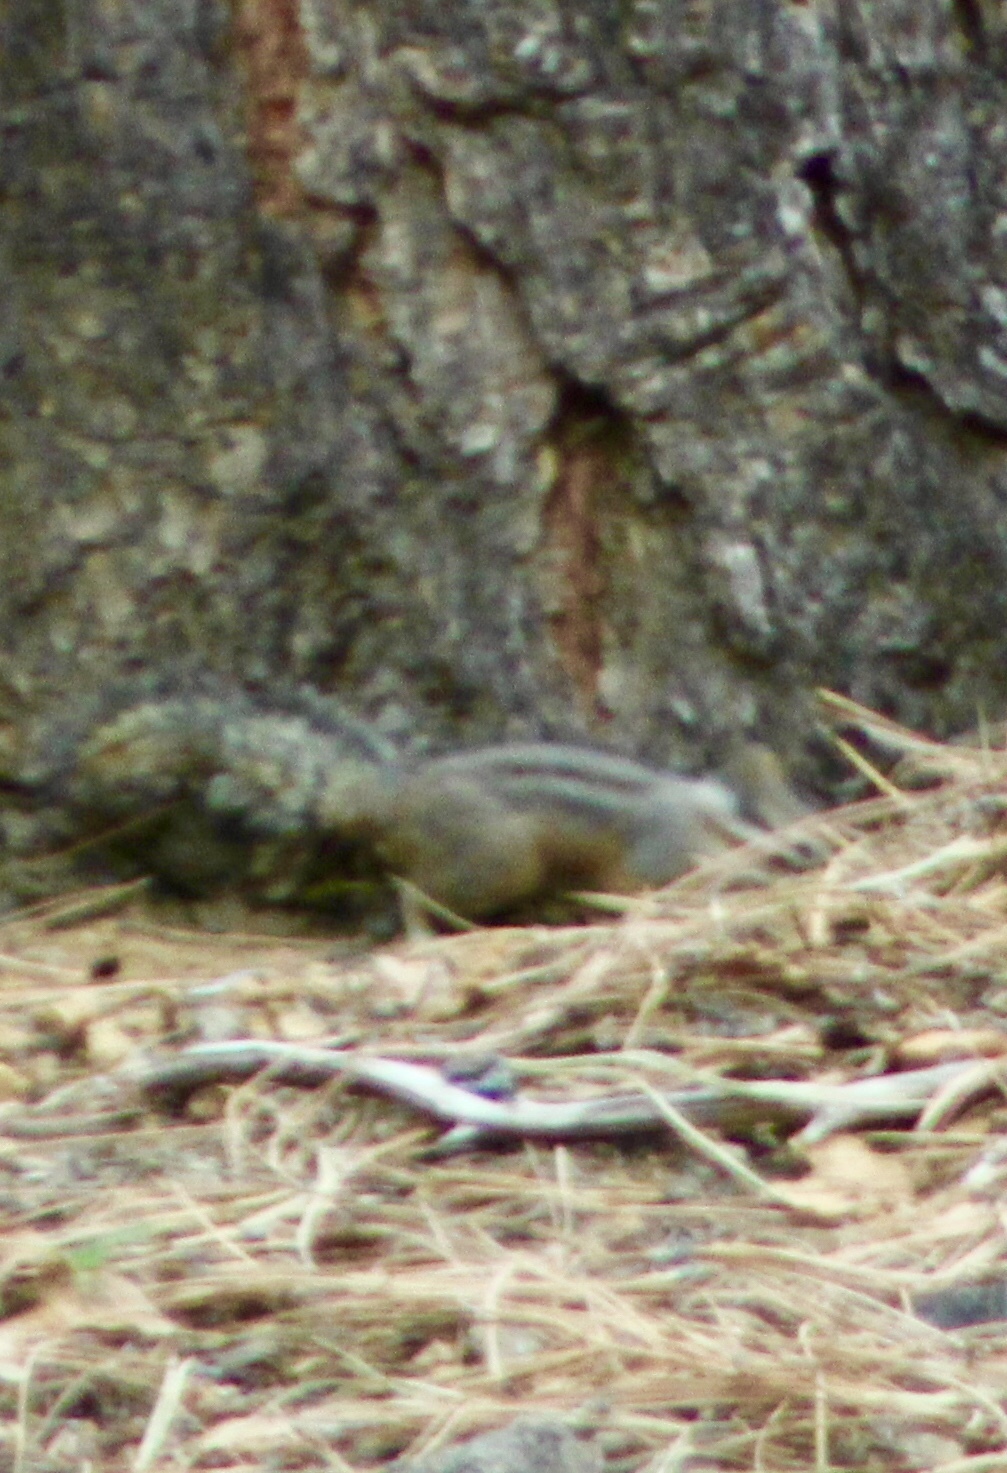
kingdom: Animalia
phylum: Chordata
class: Mammalia
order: Rodentia
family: Sciuridae
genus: Tamias
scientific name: Tamias dorsalis
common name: Cliff chipmunk
